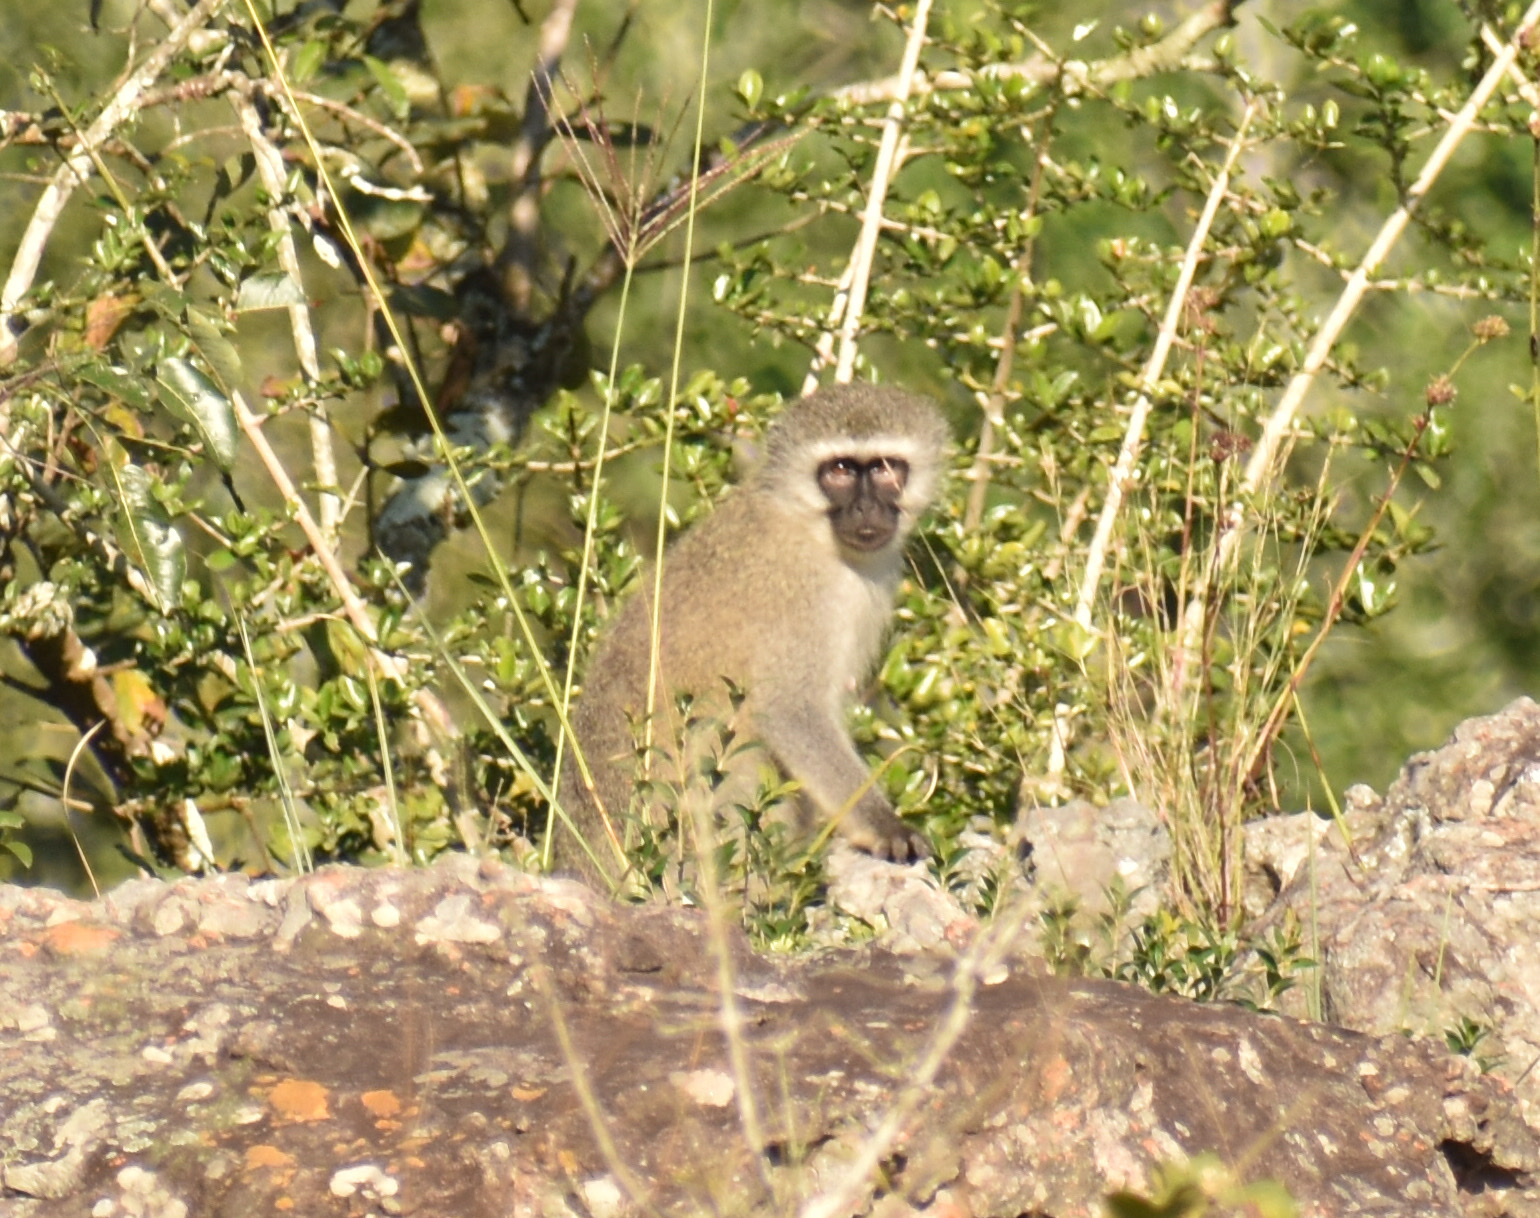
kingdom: Animalia
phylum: Chordata
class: Mammalia
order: Primates
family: Cercopithecidae
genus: Chlorocebus
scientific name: Chlorocebus pygerythrus
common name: Vervet monkey
